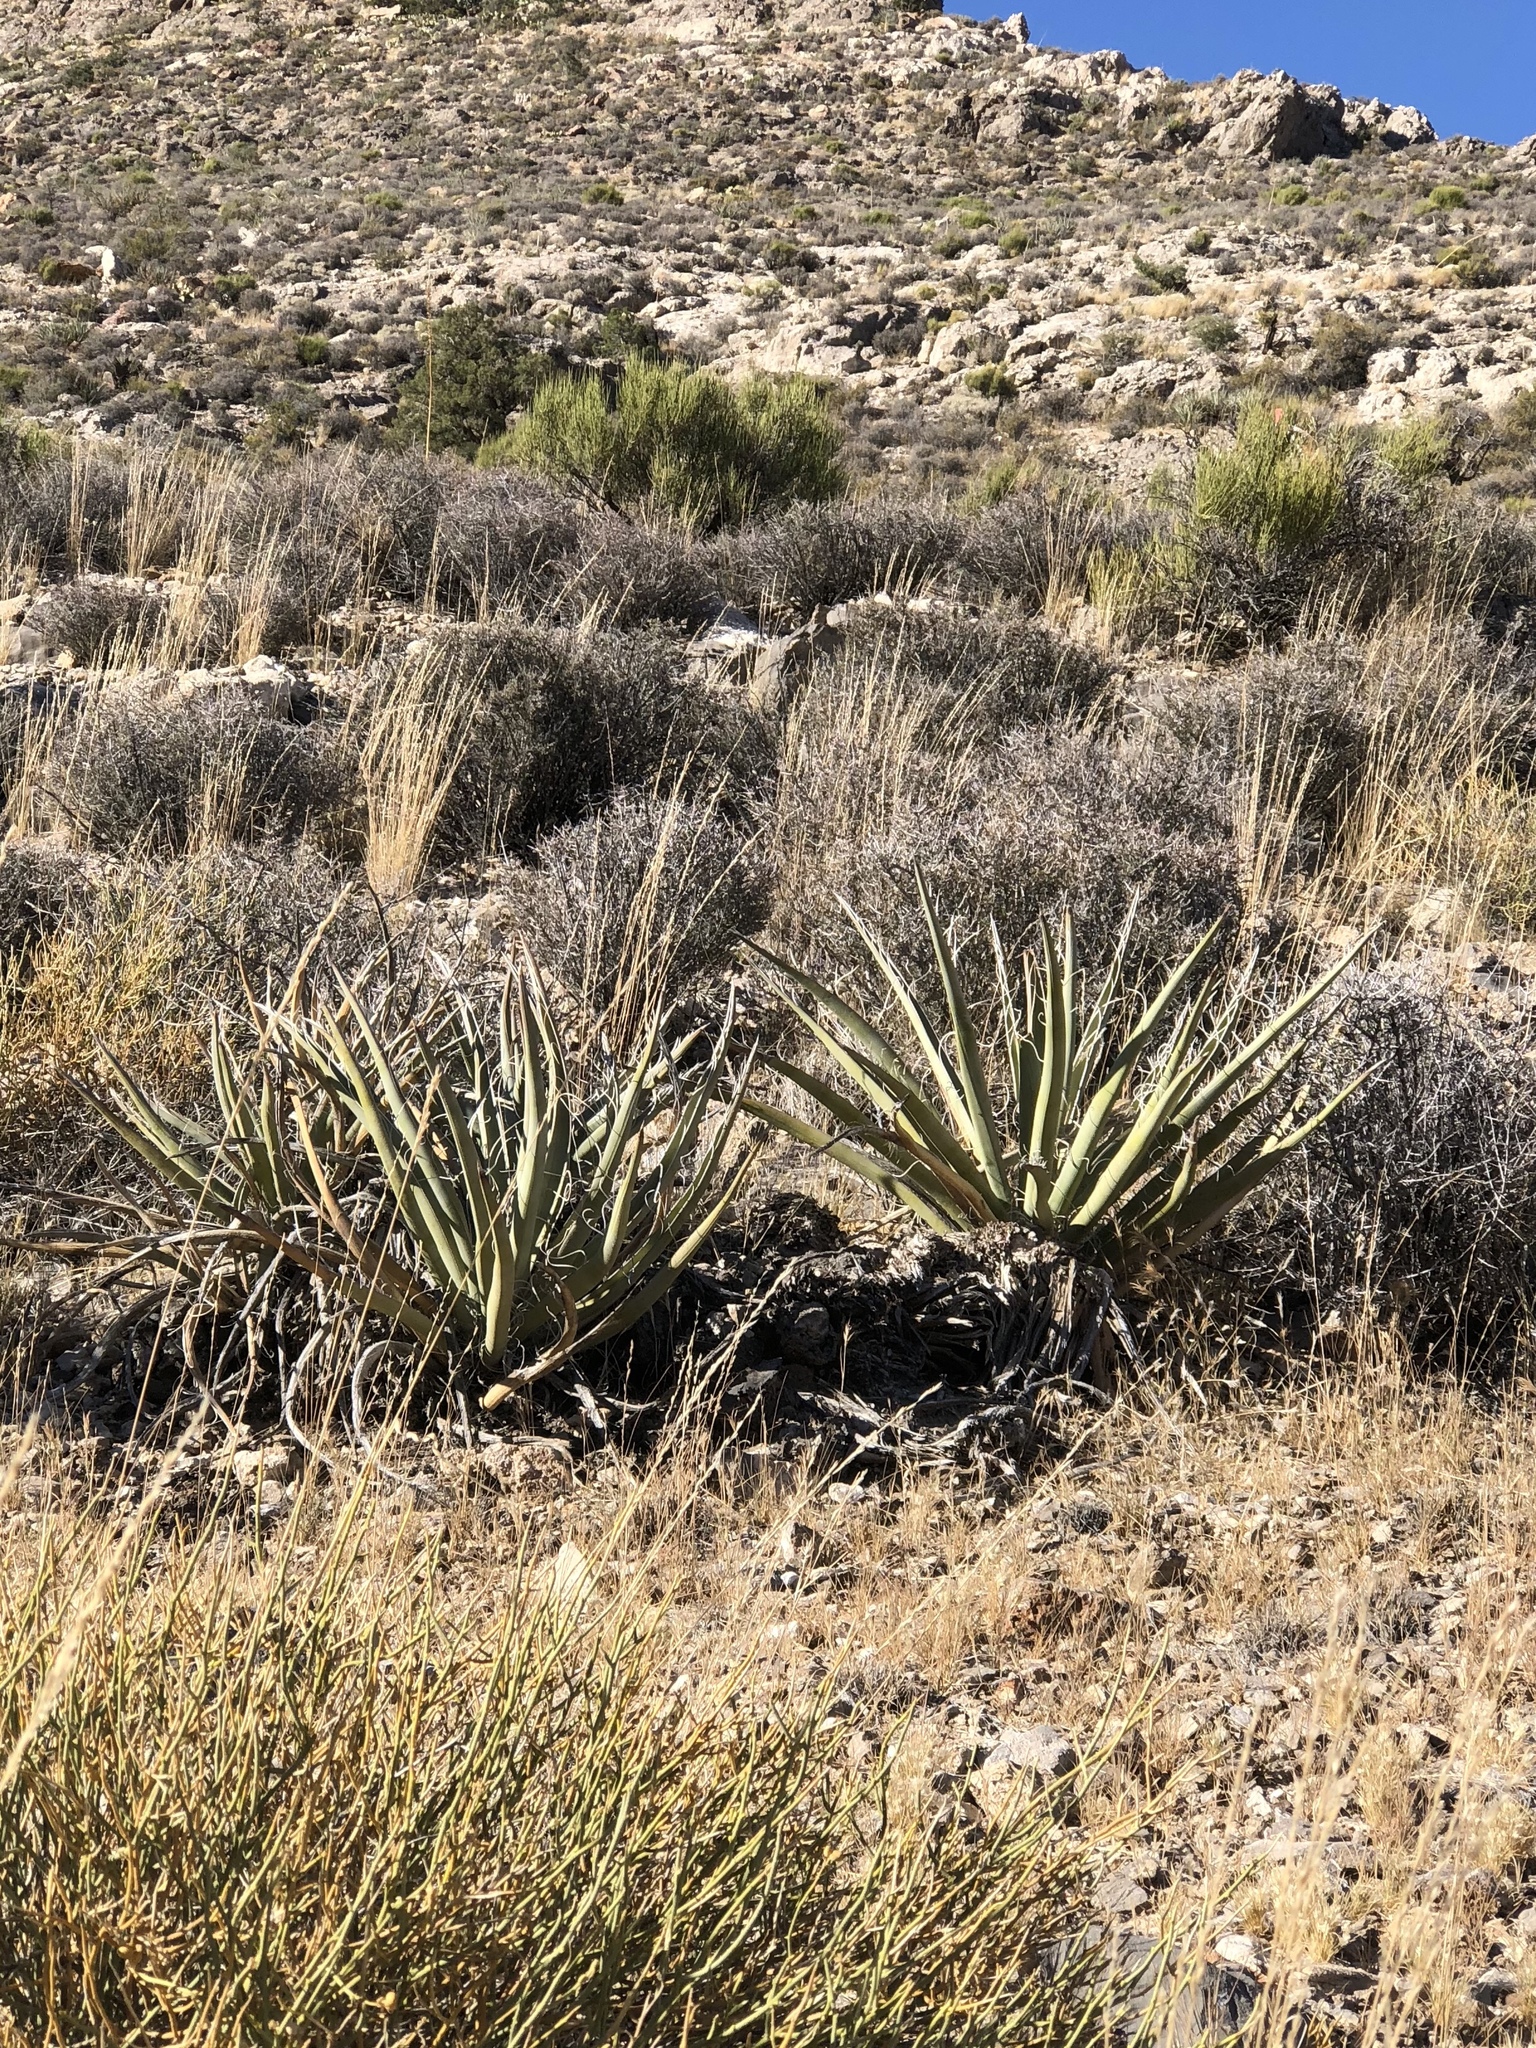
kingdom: Plantae
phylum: Tracheophyta
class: Liliopsida
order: Asparagales
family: Asparagaceae
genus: Yucca
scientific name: Yucca baccata
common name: Banana yucca
